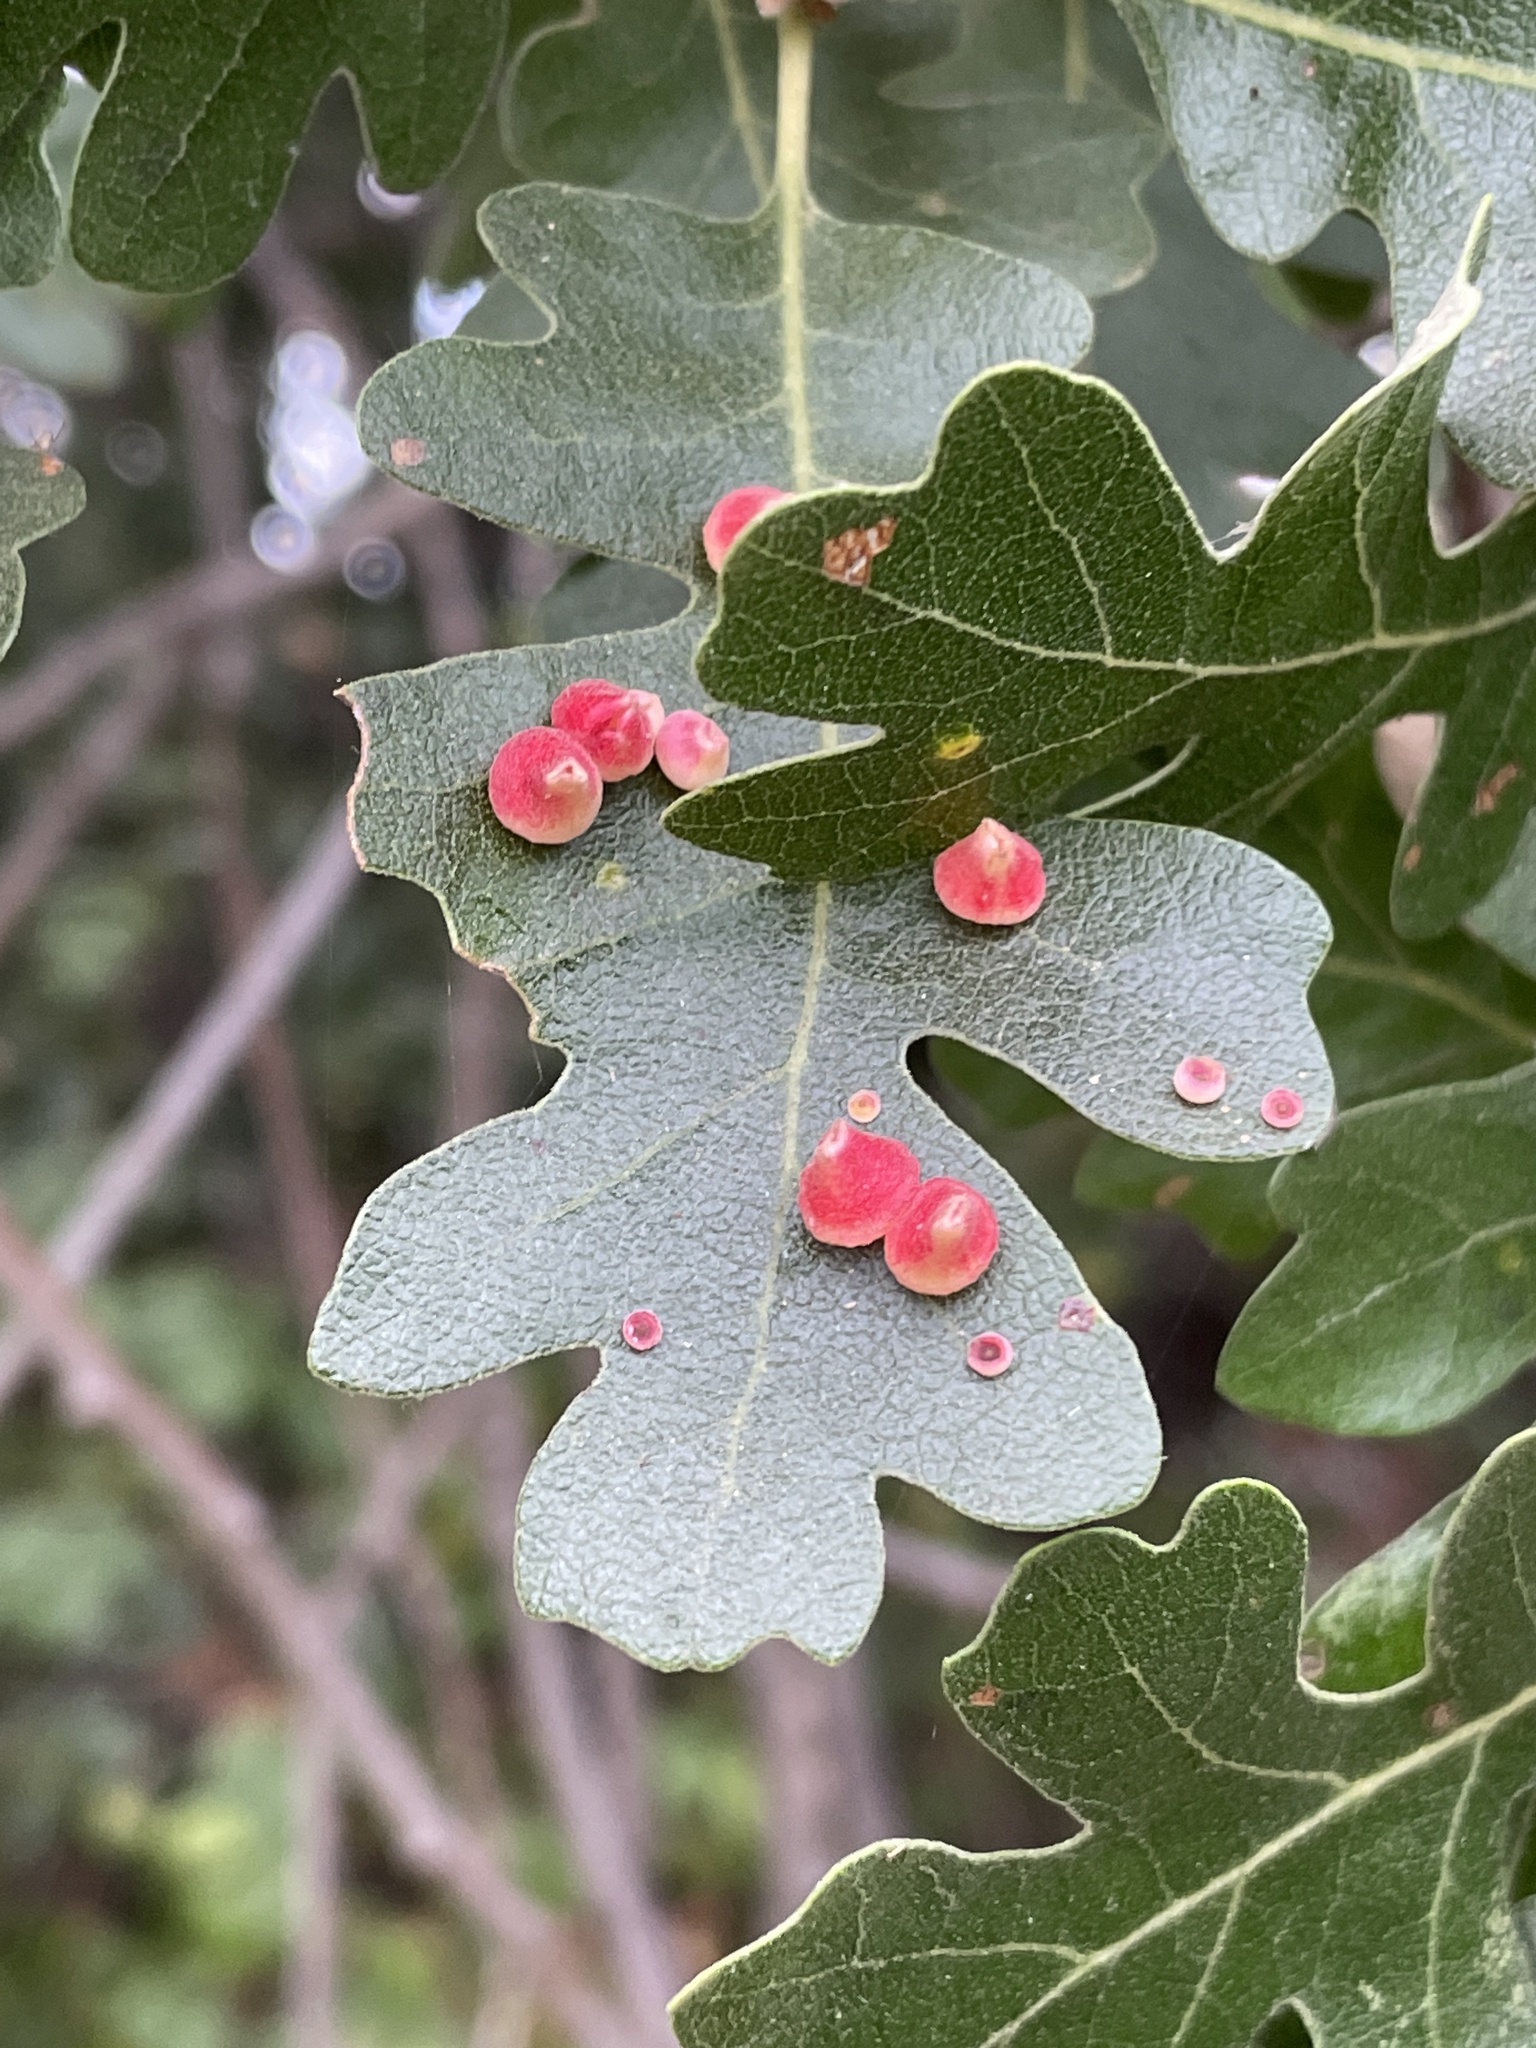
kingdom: Animalia
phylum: Arthropoda
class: Insecta
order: Hymenoptera
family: Cynipidae
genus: Andricus
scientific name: Andricus
